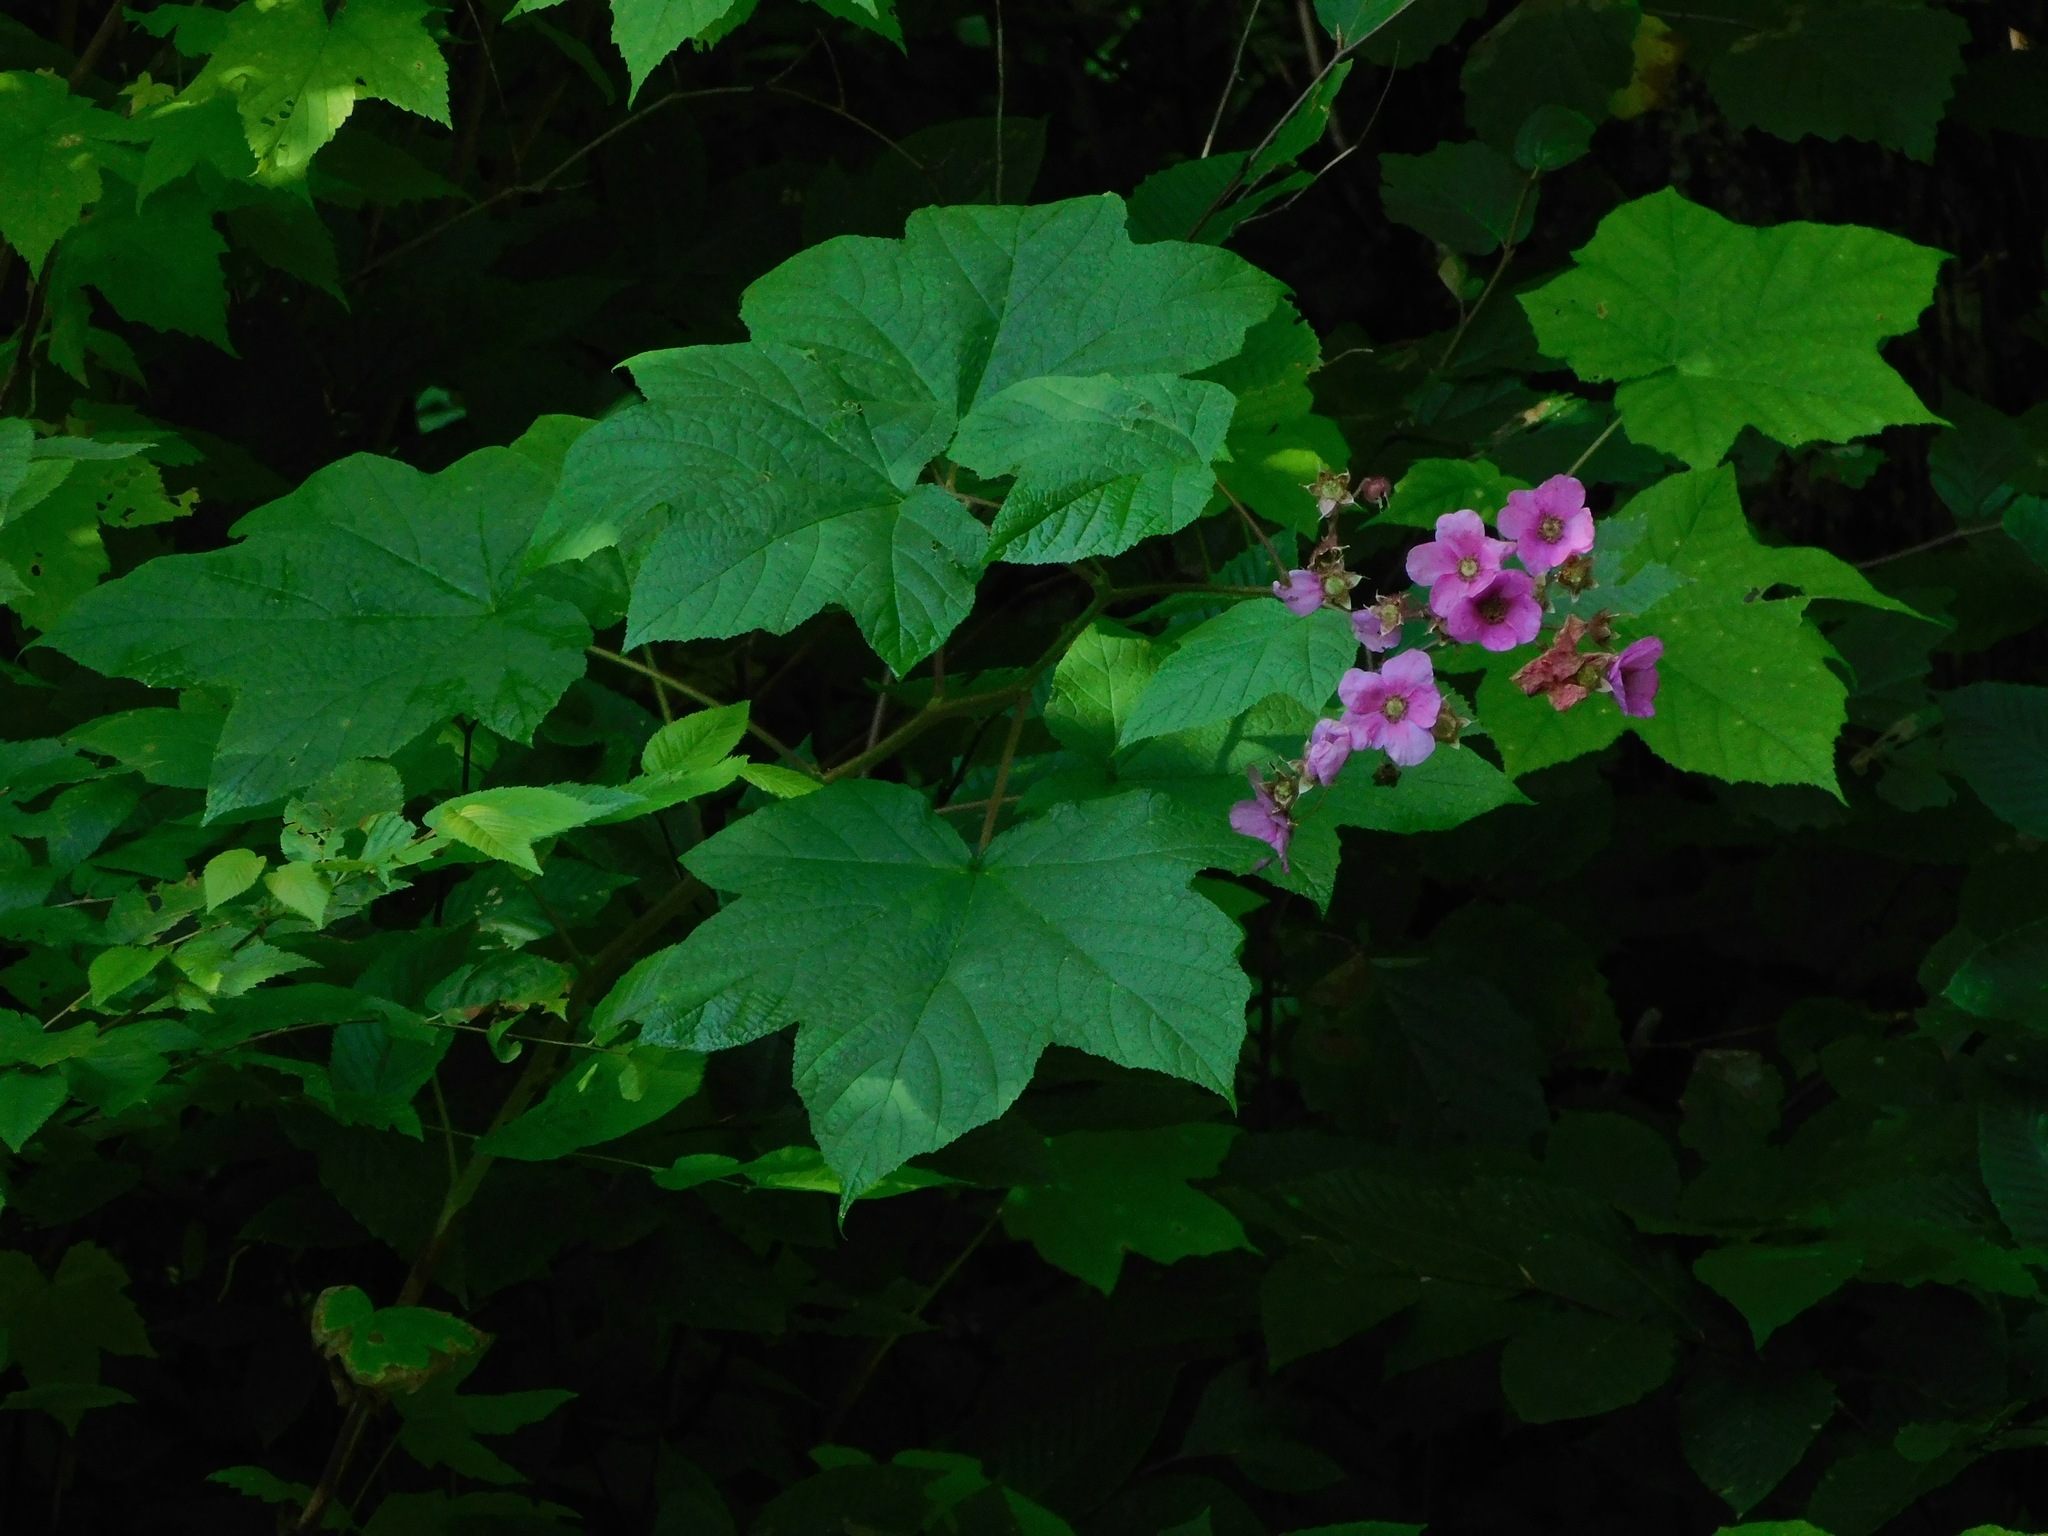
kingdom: Plantae
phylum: Tracheophyta
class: Magnoliopsida
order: Rosales
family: Rosaceae
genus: Rubus
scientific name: Rubus odoratus
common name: Purple-flowered raspberry
